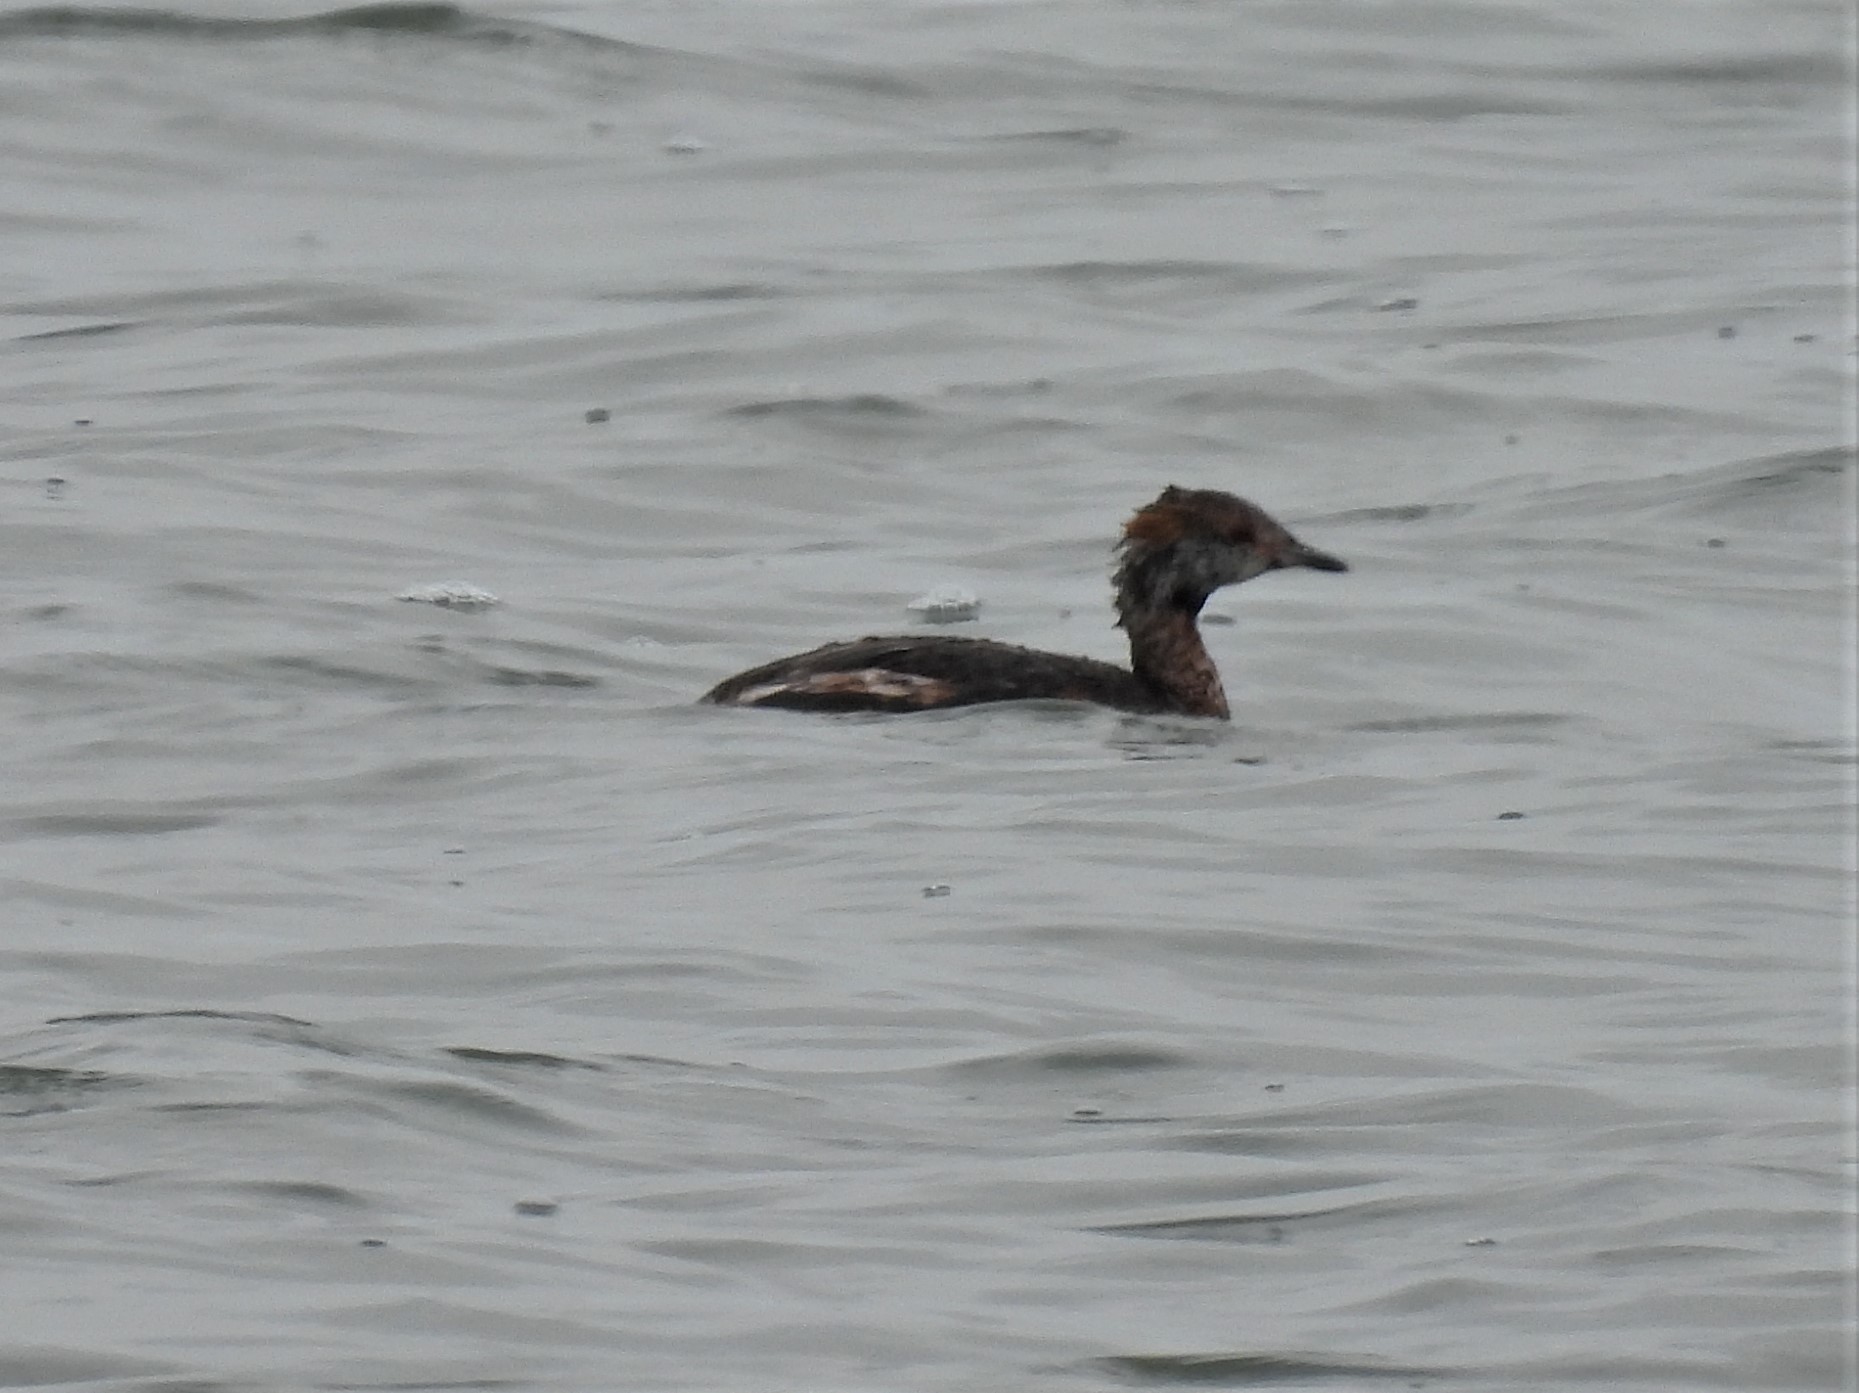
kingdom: Animalia
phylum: Chordata
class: Aves
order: Podicipediformes
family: Podicipedidae
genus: Podiceps
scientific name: Podiceps auritus
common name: Horned grebe
